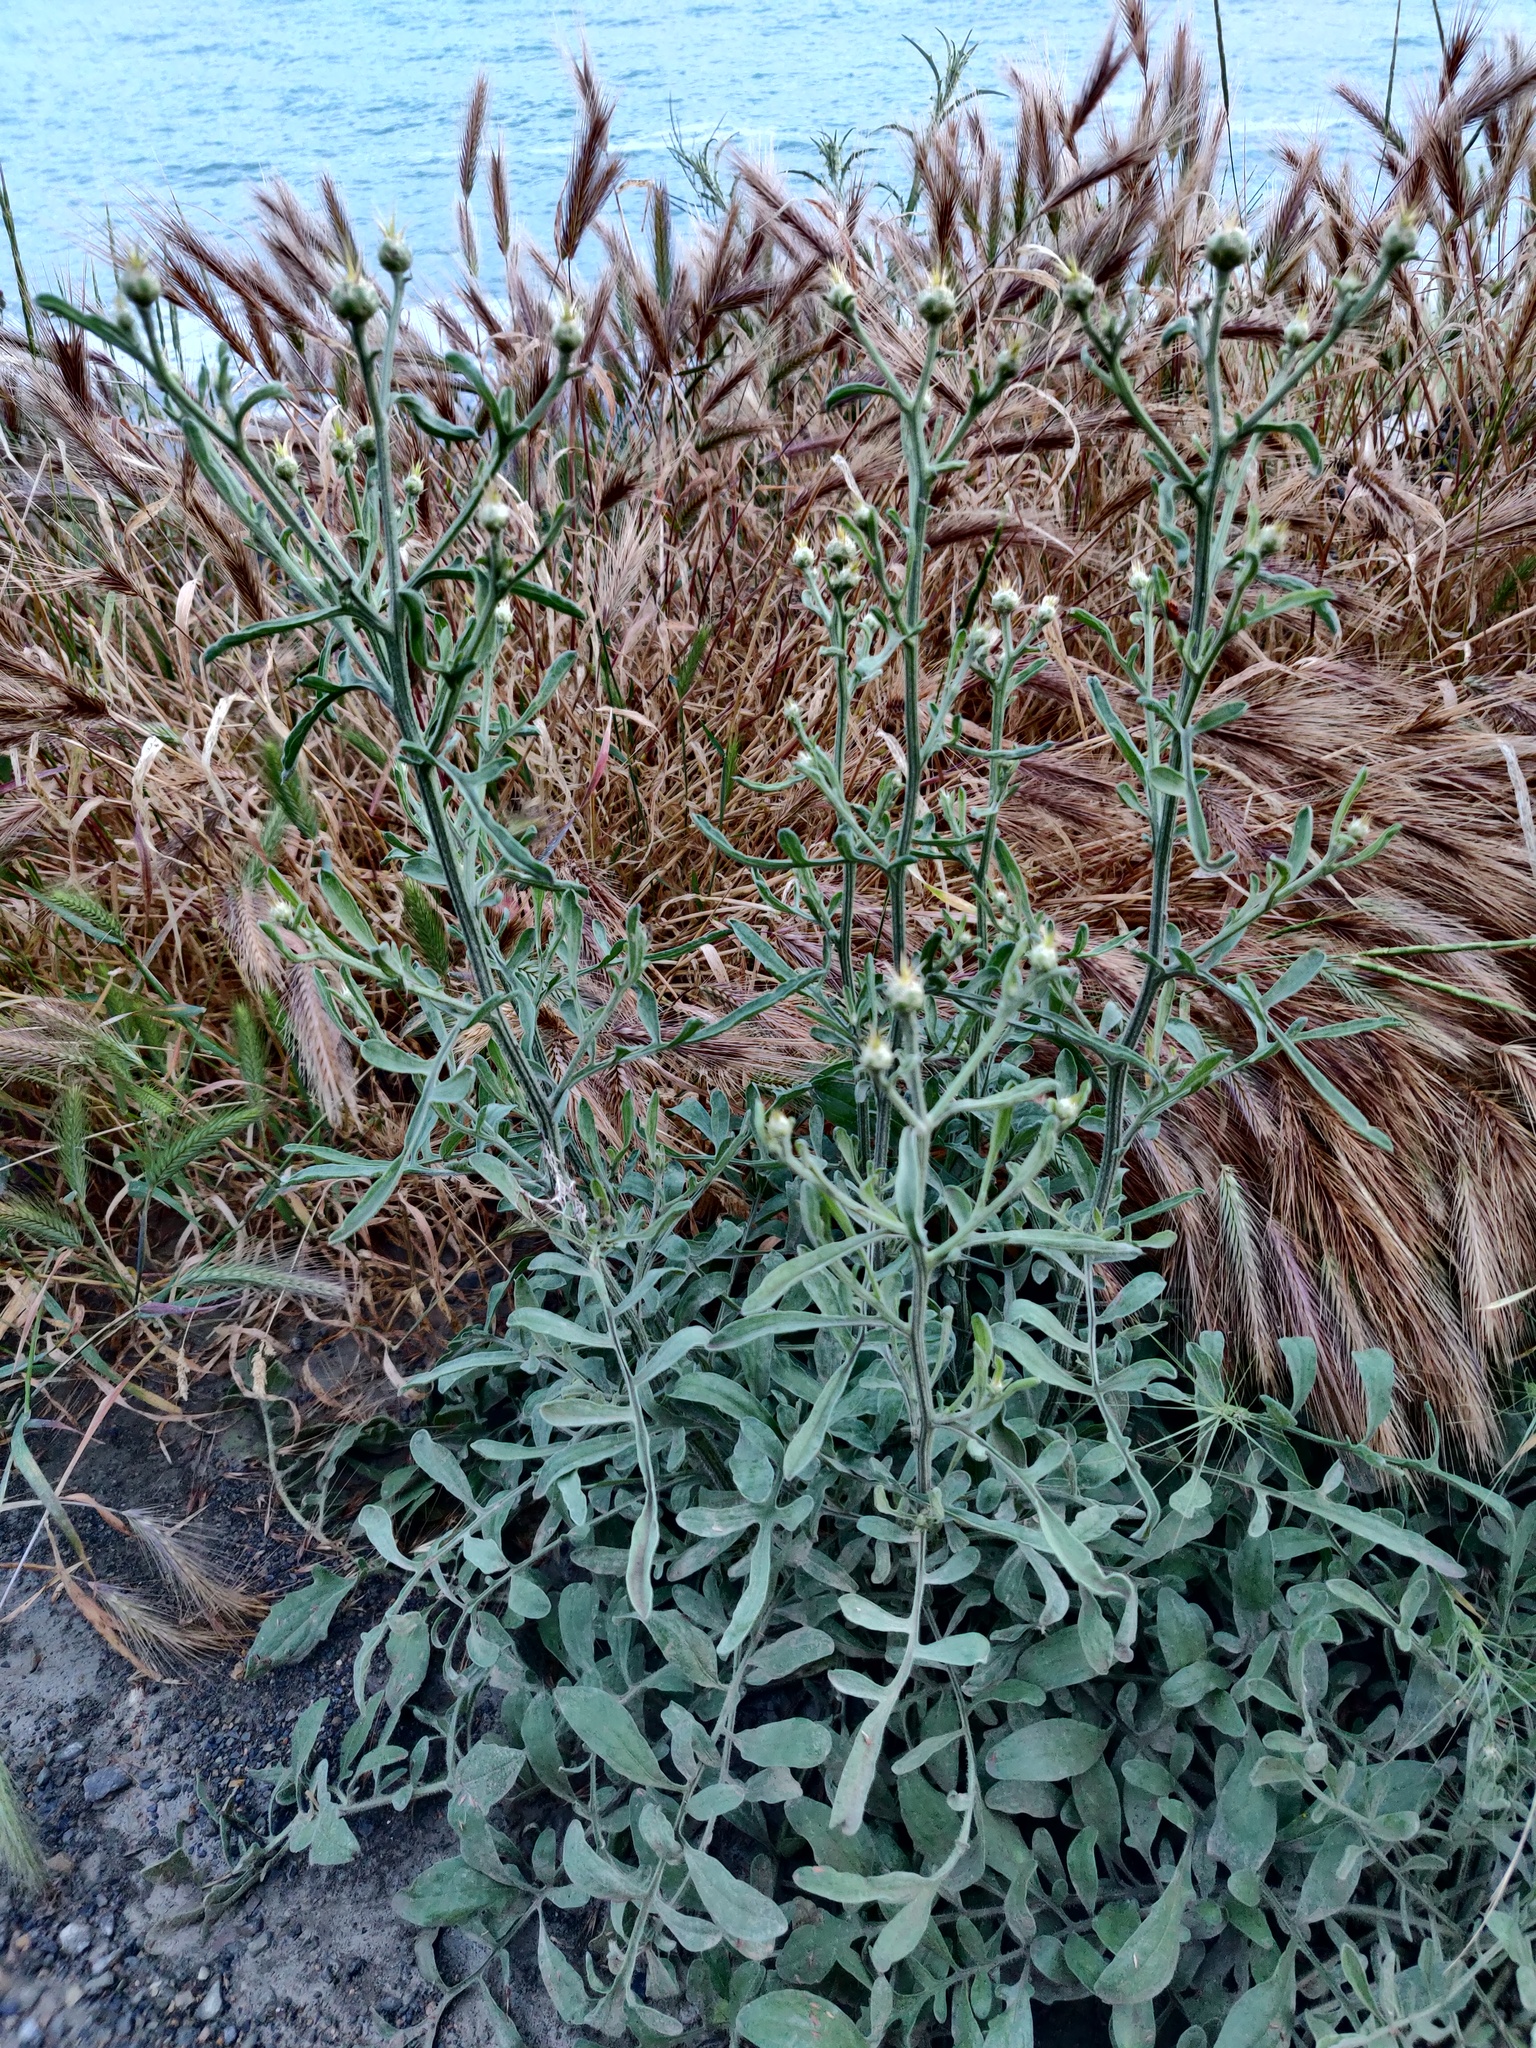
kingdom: Plantae
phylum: Tracheophyta
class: Magnoliopsida
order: Asterales
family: Asteraceae
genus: Centaurea
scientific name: Centaurea solstitialis
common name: Yellow star-thistle
